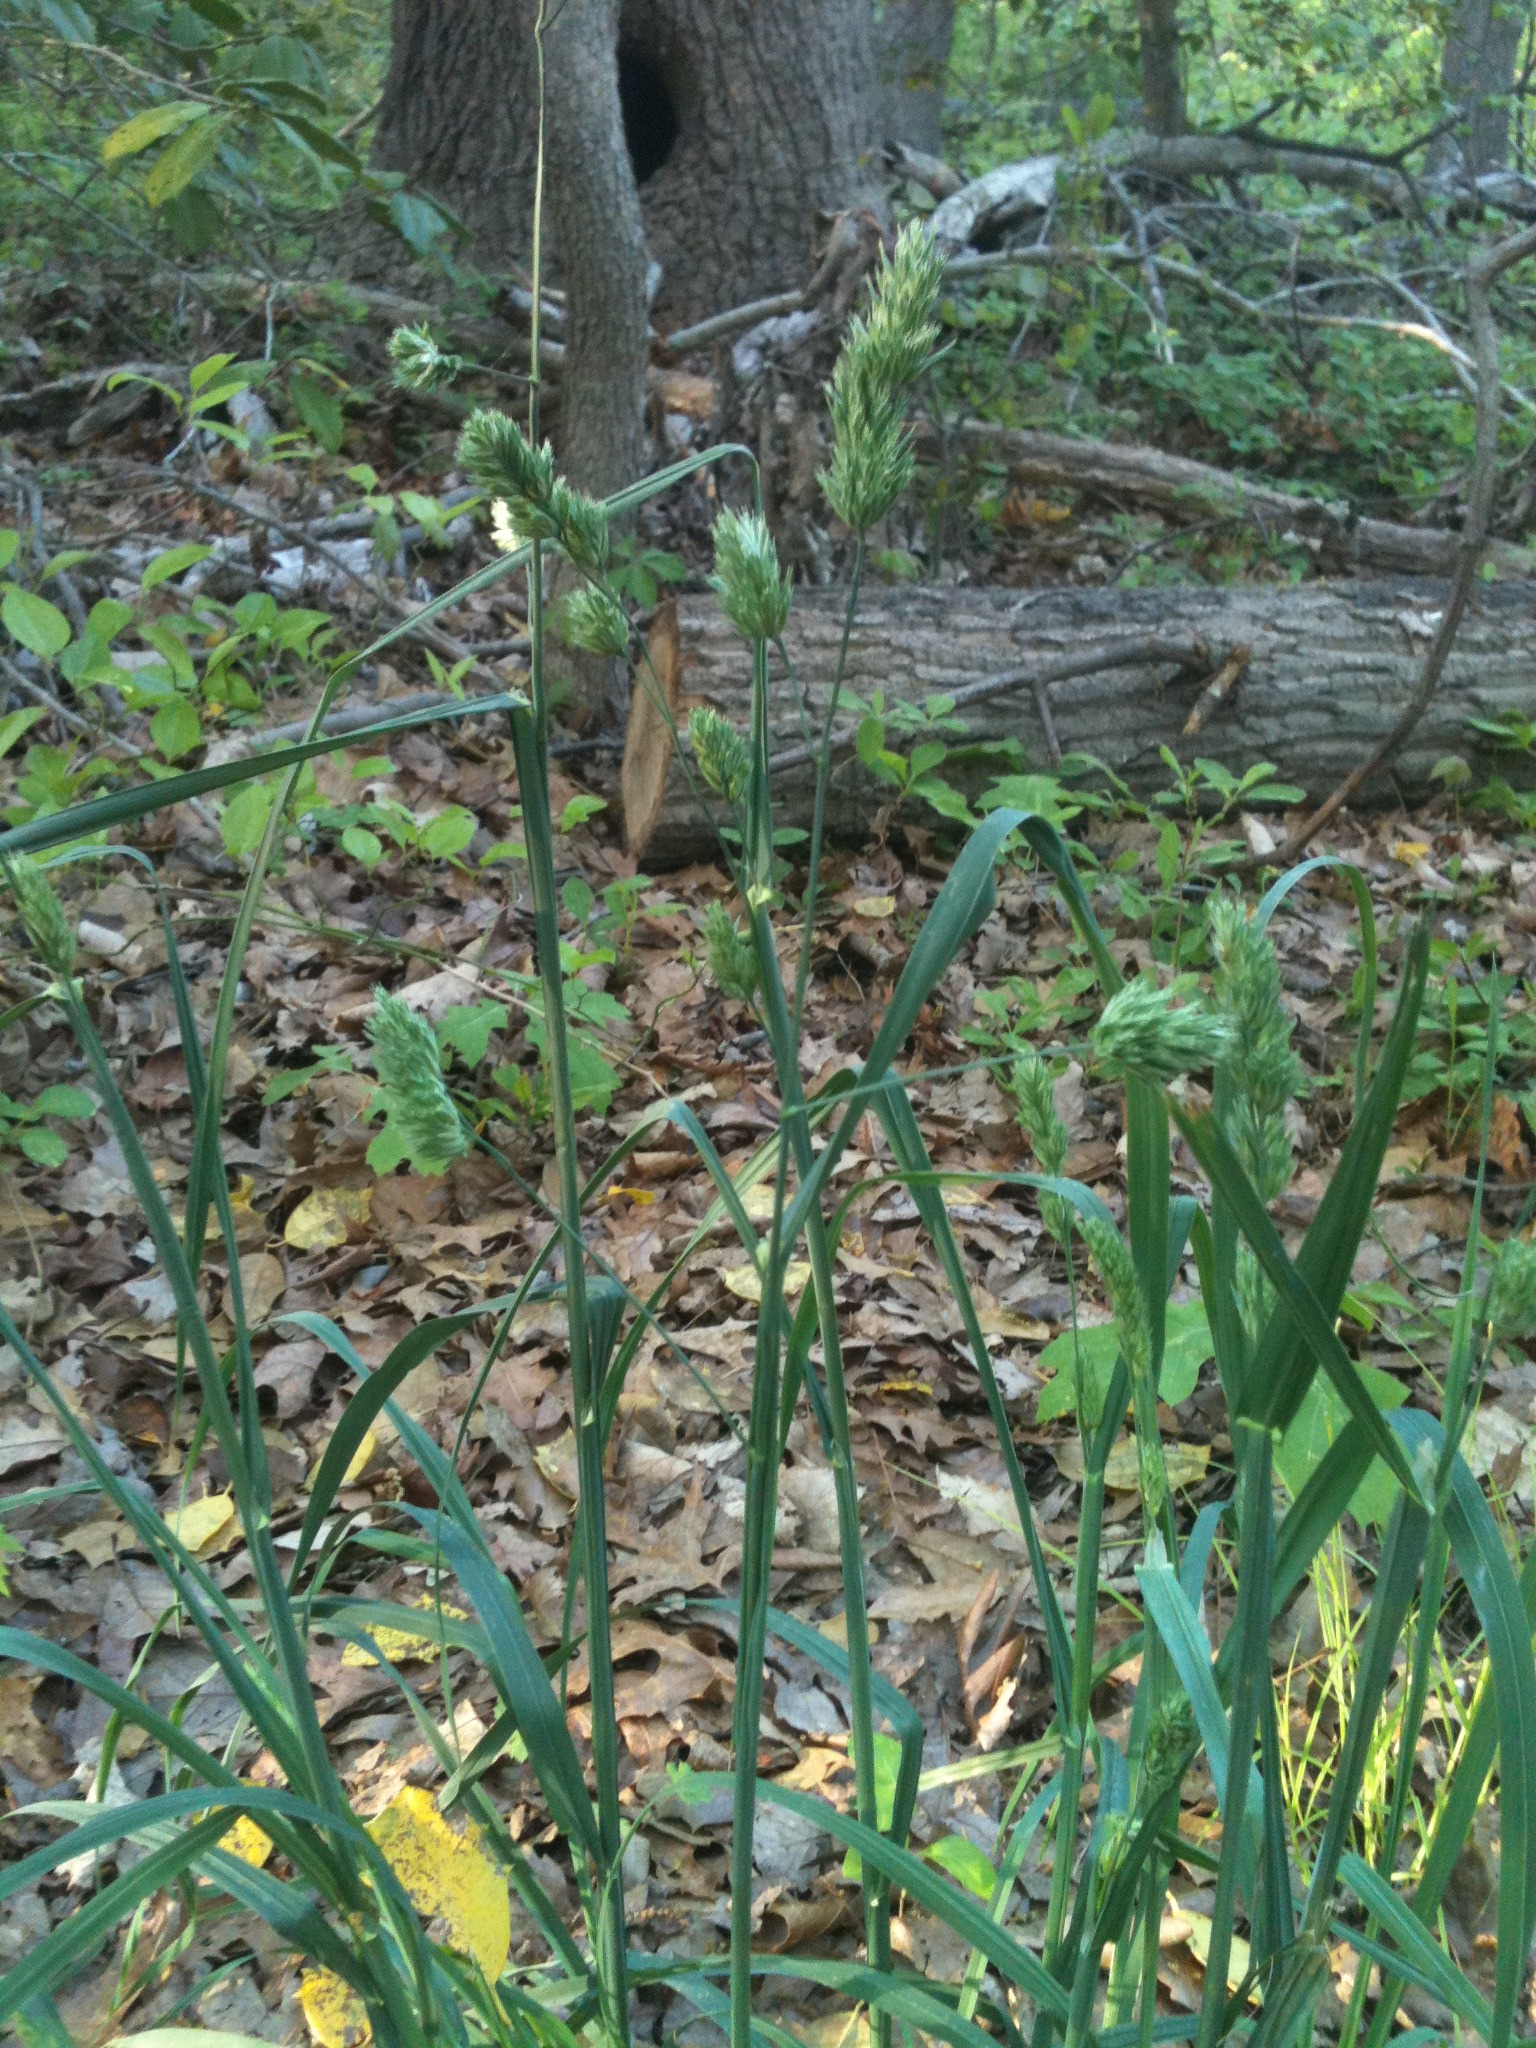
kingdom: Plantae
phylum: Tracheophyta
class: Liliopsida
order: Poales
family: Poaceae
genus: Dactylis
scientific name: Dactylis glomerata
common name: Orchardgrass
